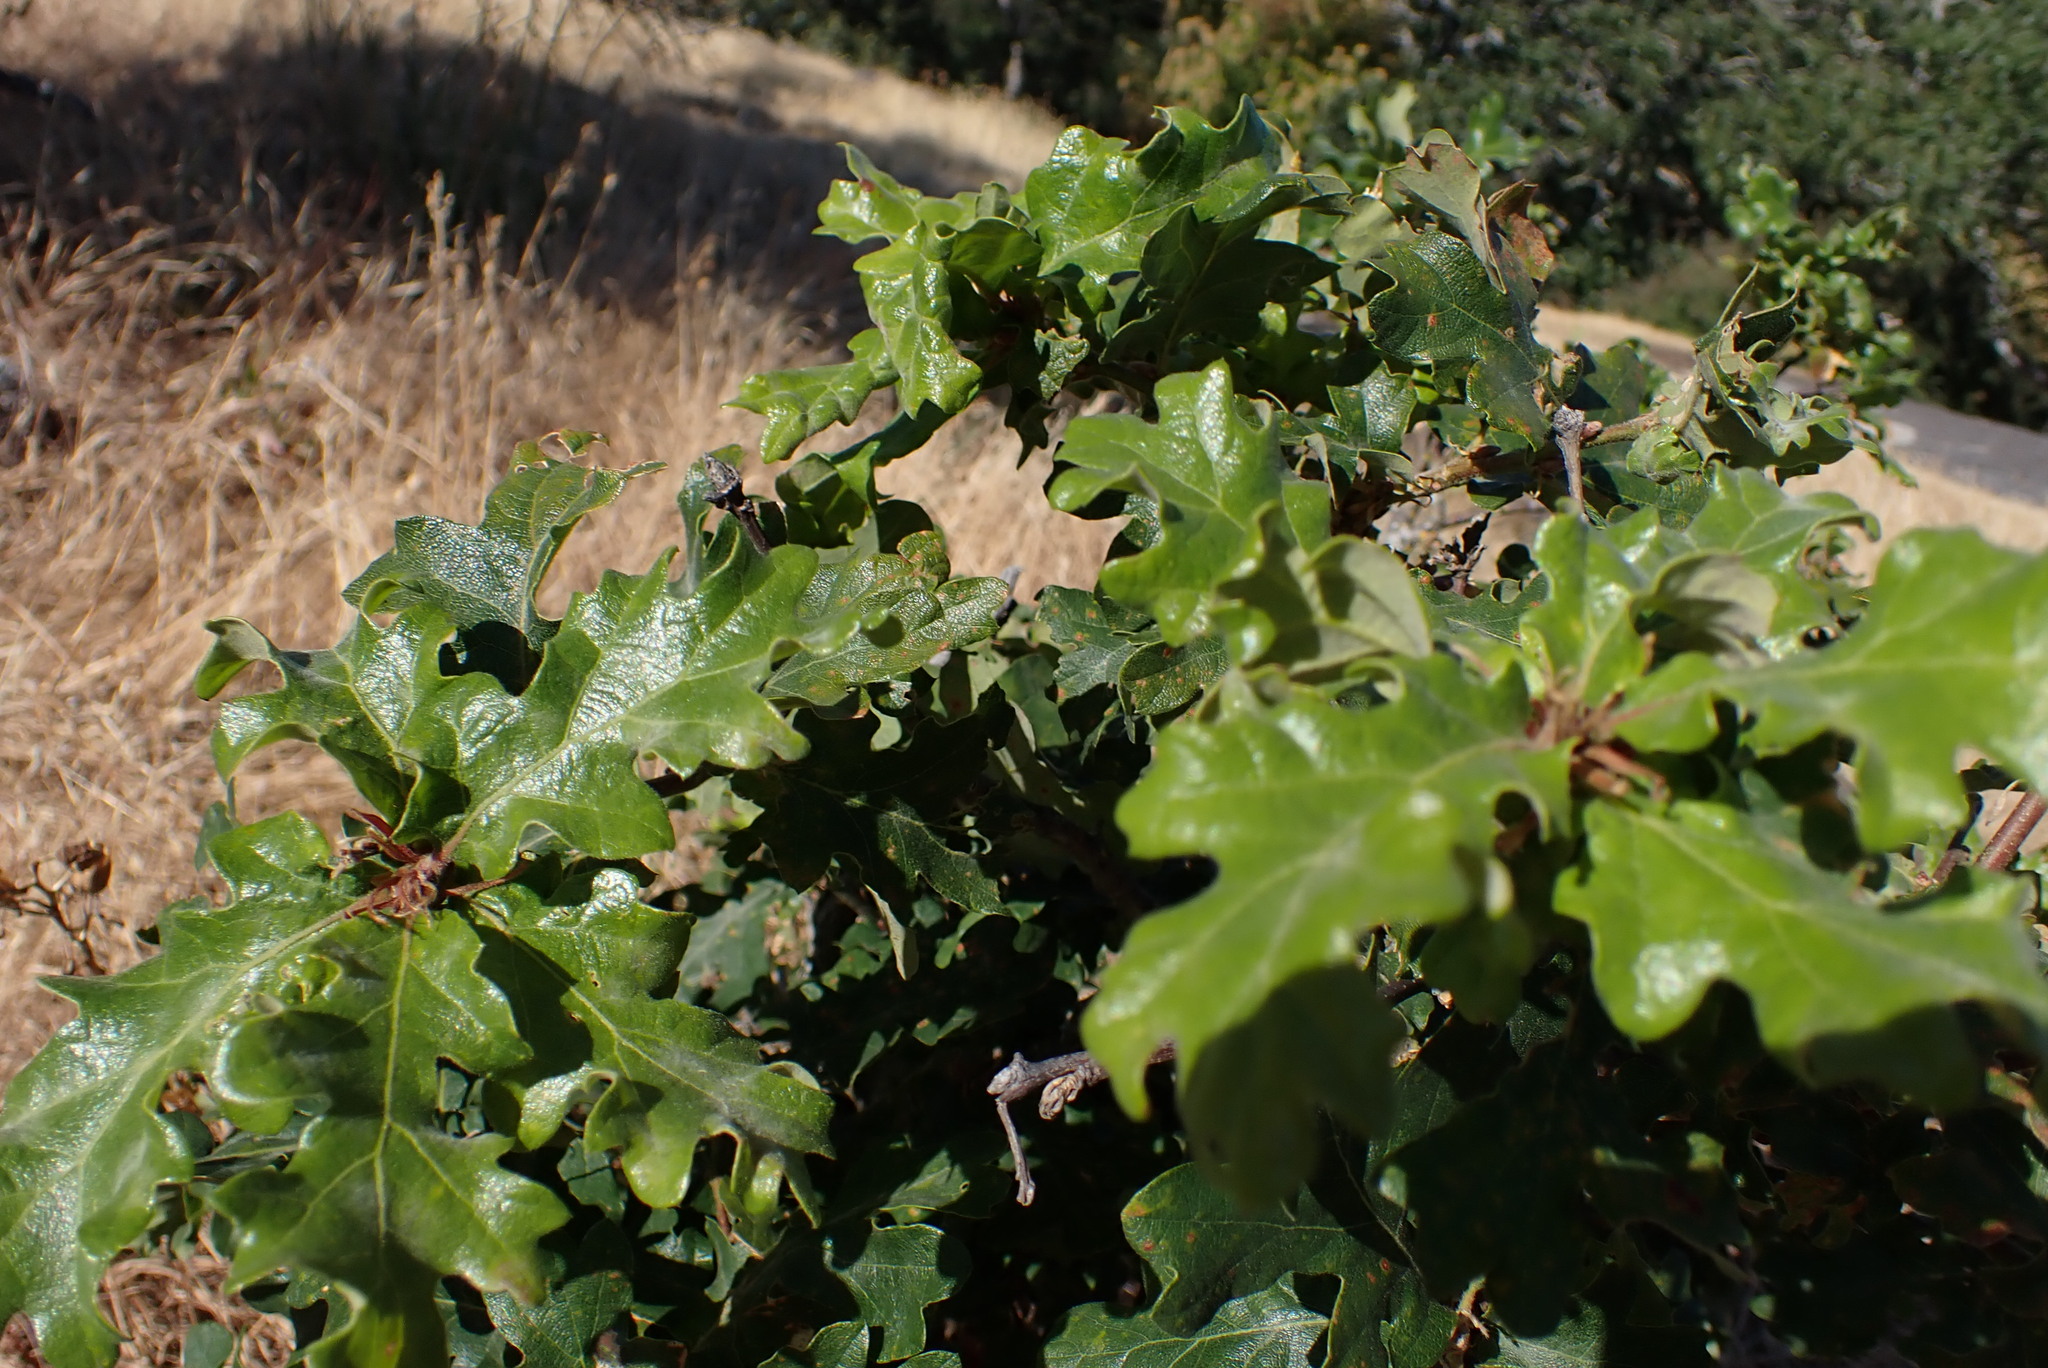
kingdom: Plantae
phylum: Tracheophyta
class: Magnoliopsida
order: Fagales
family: Fagaceae
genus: Quercus
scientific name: Quercus garryana
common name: Garry oak
